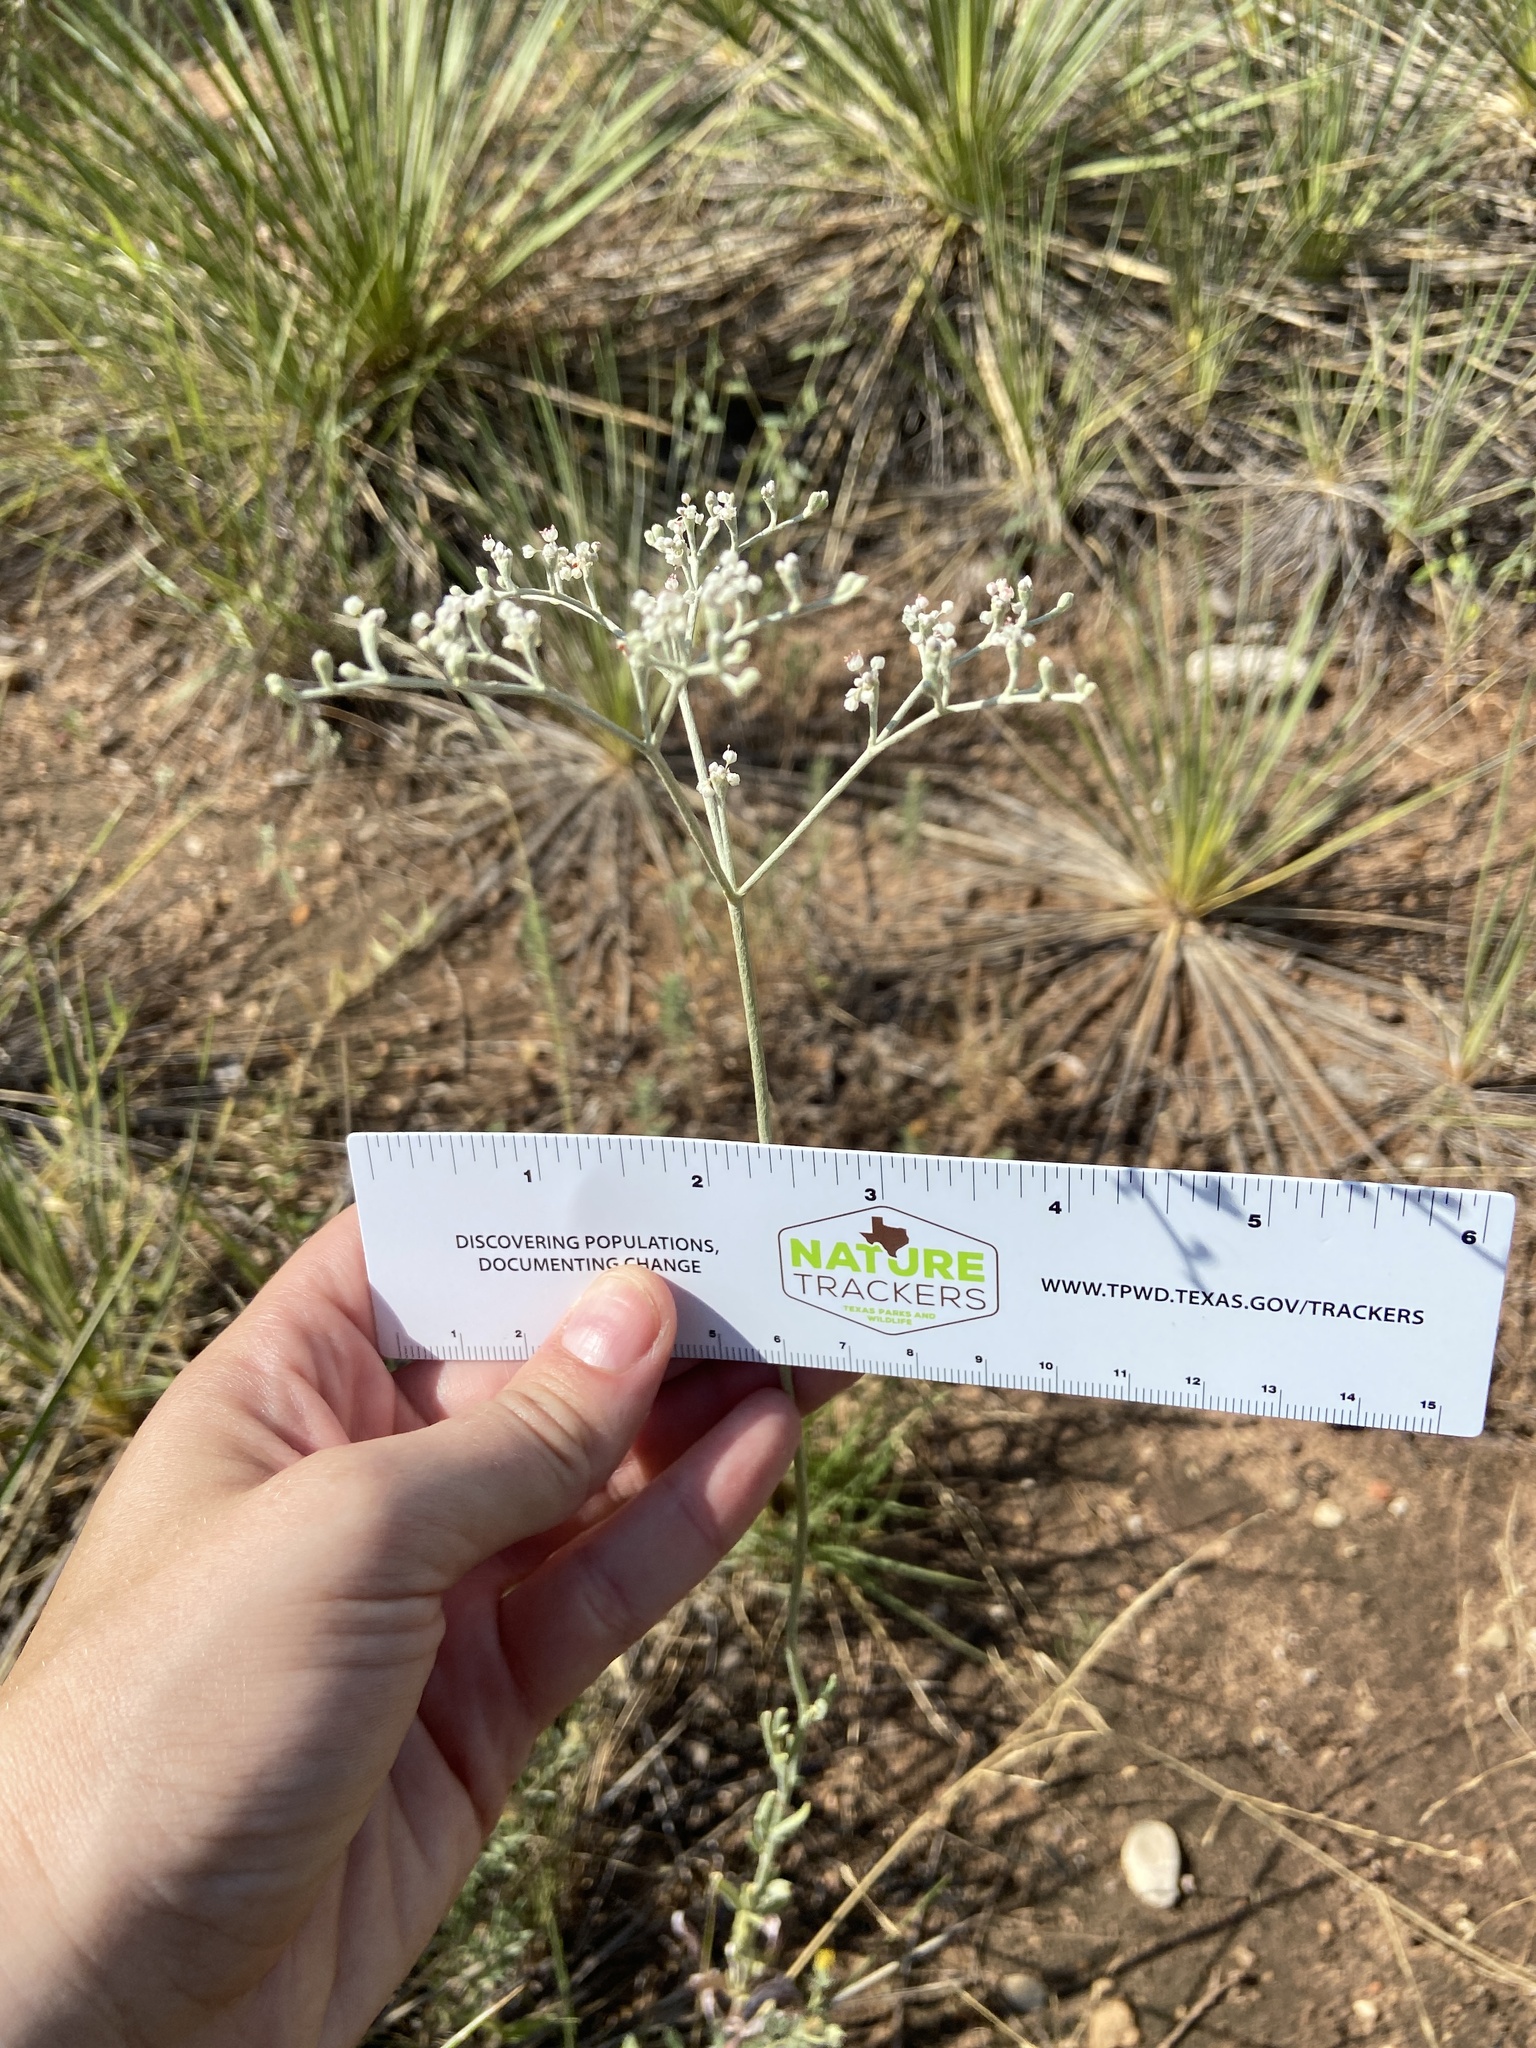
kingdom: Plantae
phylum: Tracheophyta
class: Magnoliopsida
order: Caryophyllales
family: Polygonaceae
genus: Eriogonum
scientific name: Eriogonum annuum
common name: Annual wild buckwheat
